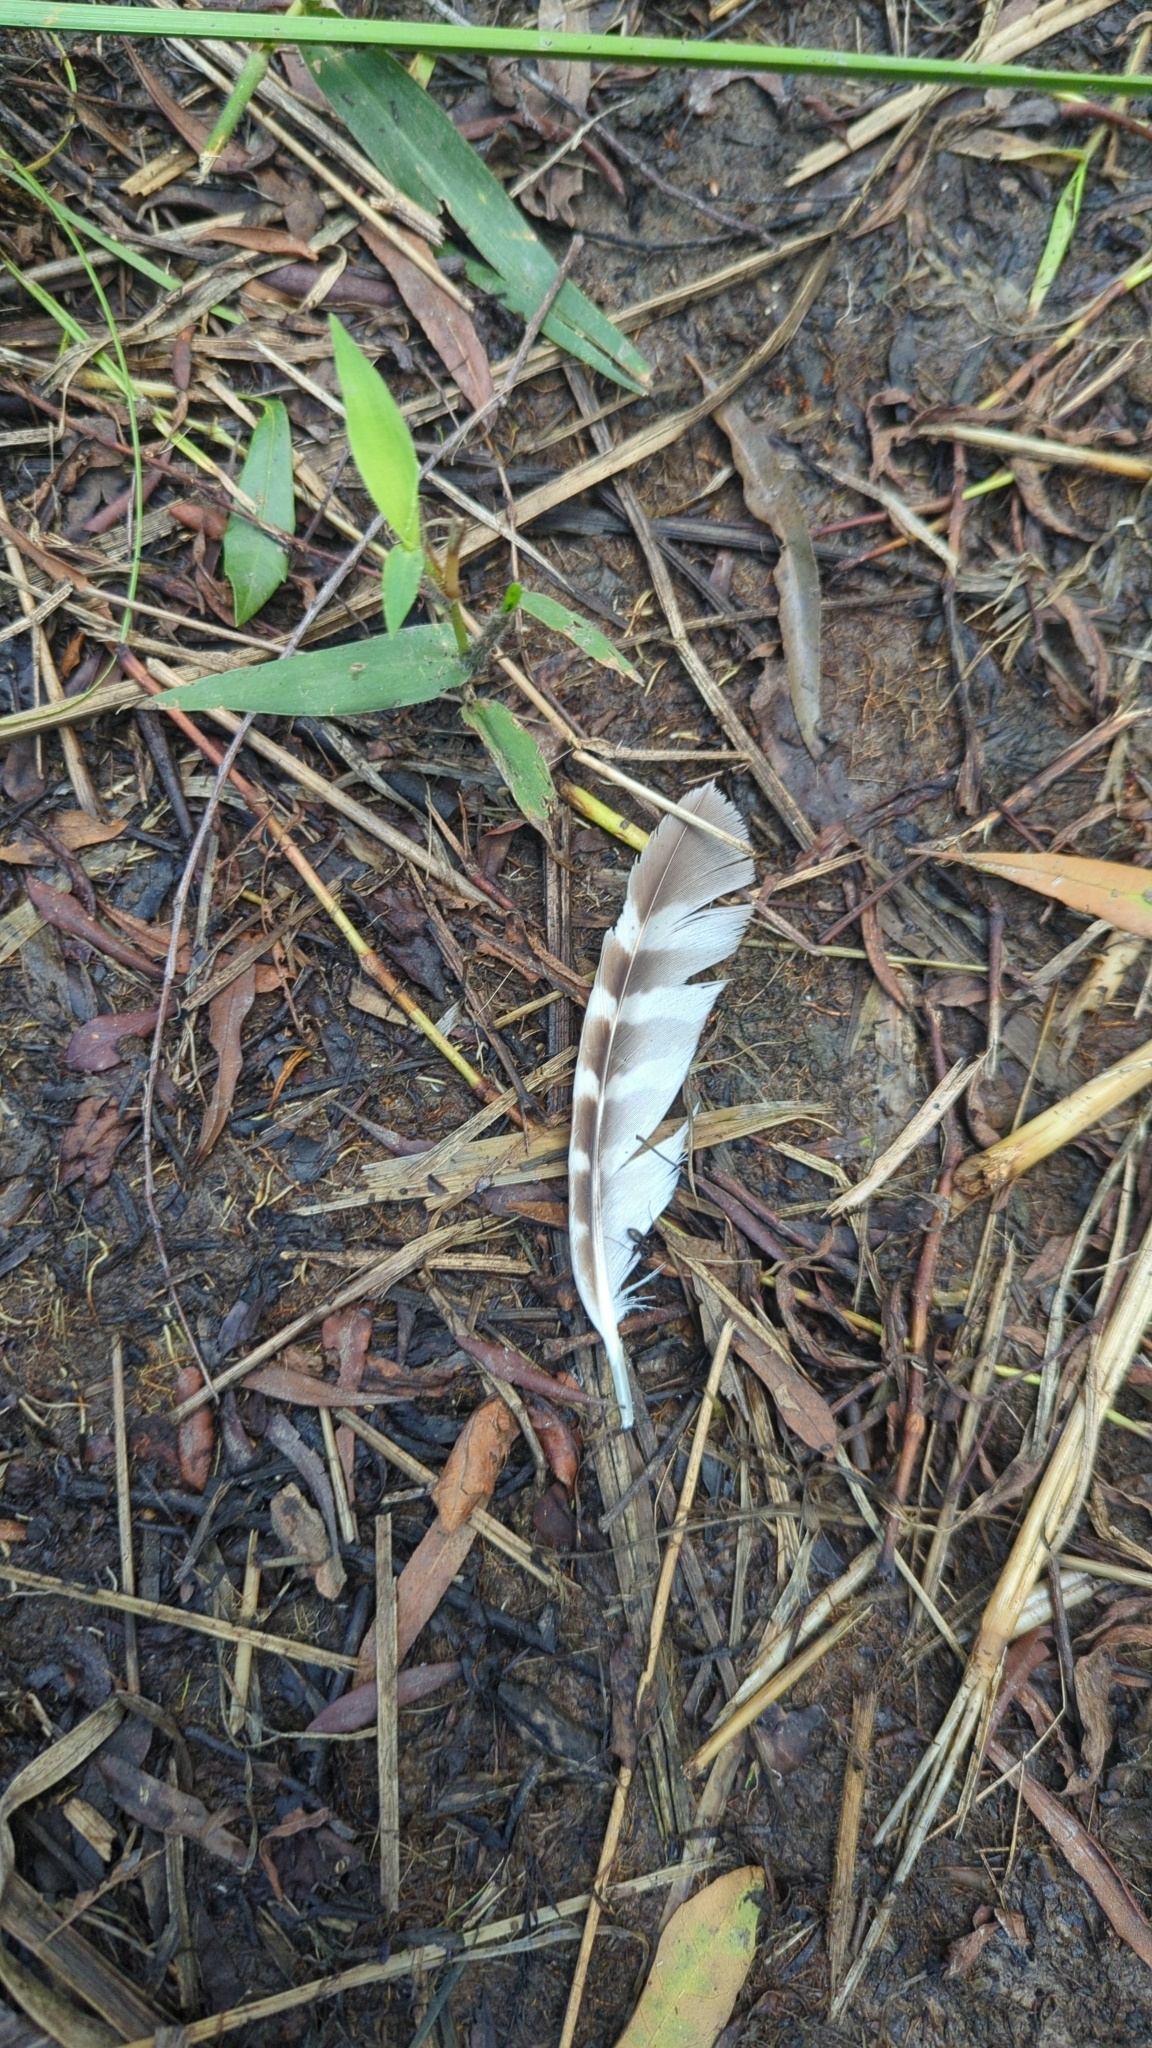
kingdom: Animalia
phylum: Chordata
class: Aves
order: Accipitriformes
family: Accipitridae
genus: Buteo
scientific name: Buteo lineatus
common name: Red-shouldered hawk
